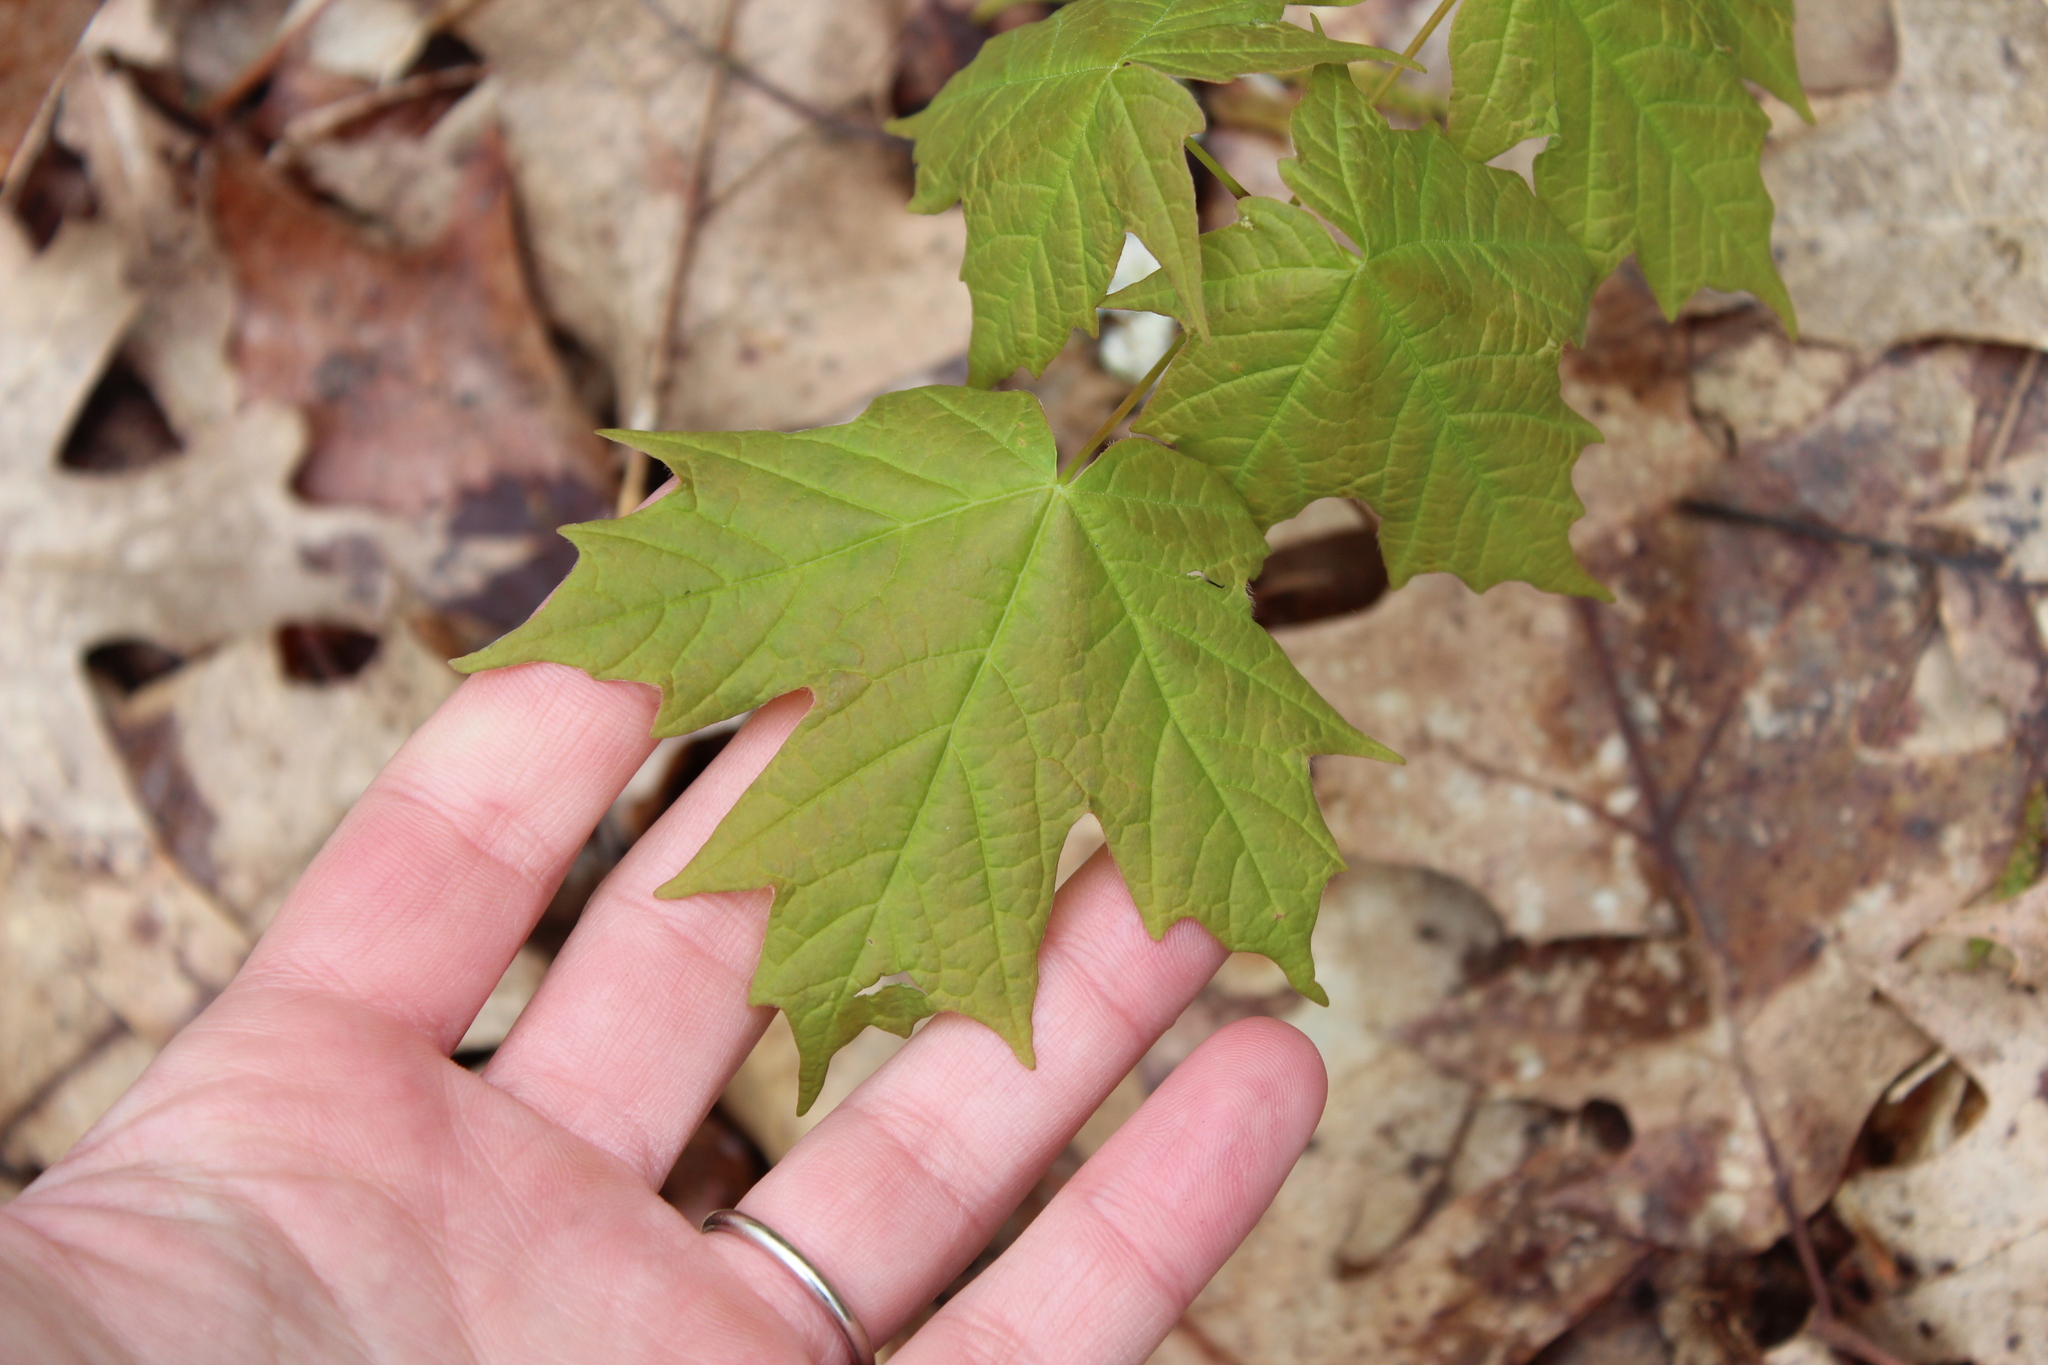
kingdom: Plantae
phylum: Tracheophyta
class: Magnoliopsida
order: Sapindales
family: Sapindaceae
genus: Acer
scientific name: Acer saccharum
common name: Sugar maple
